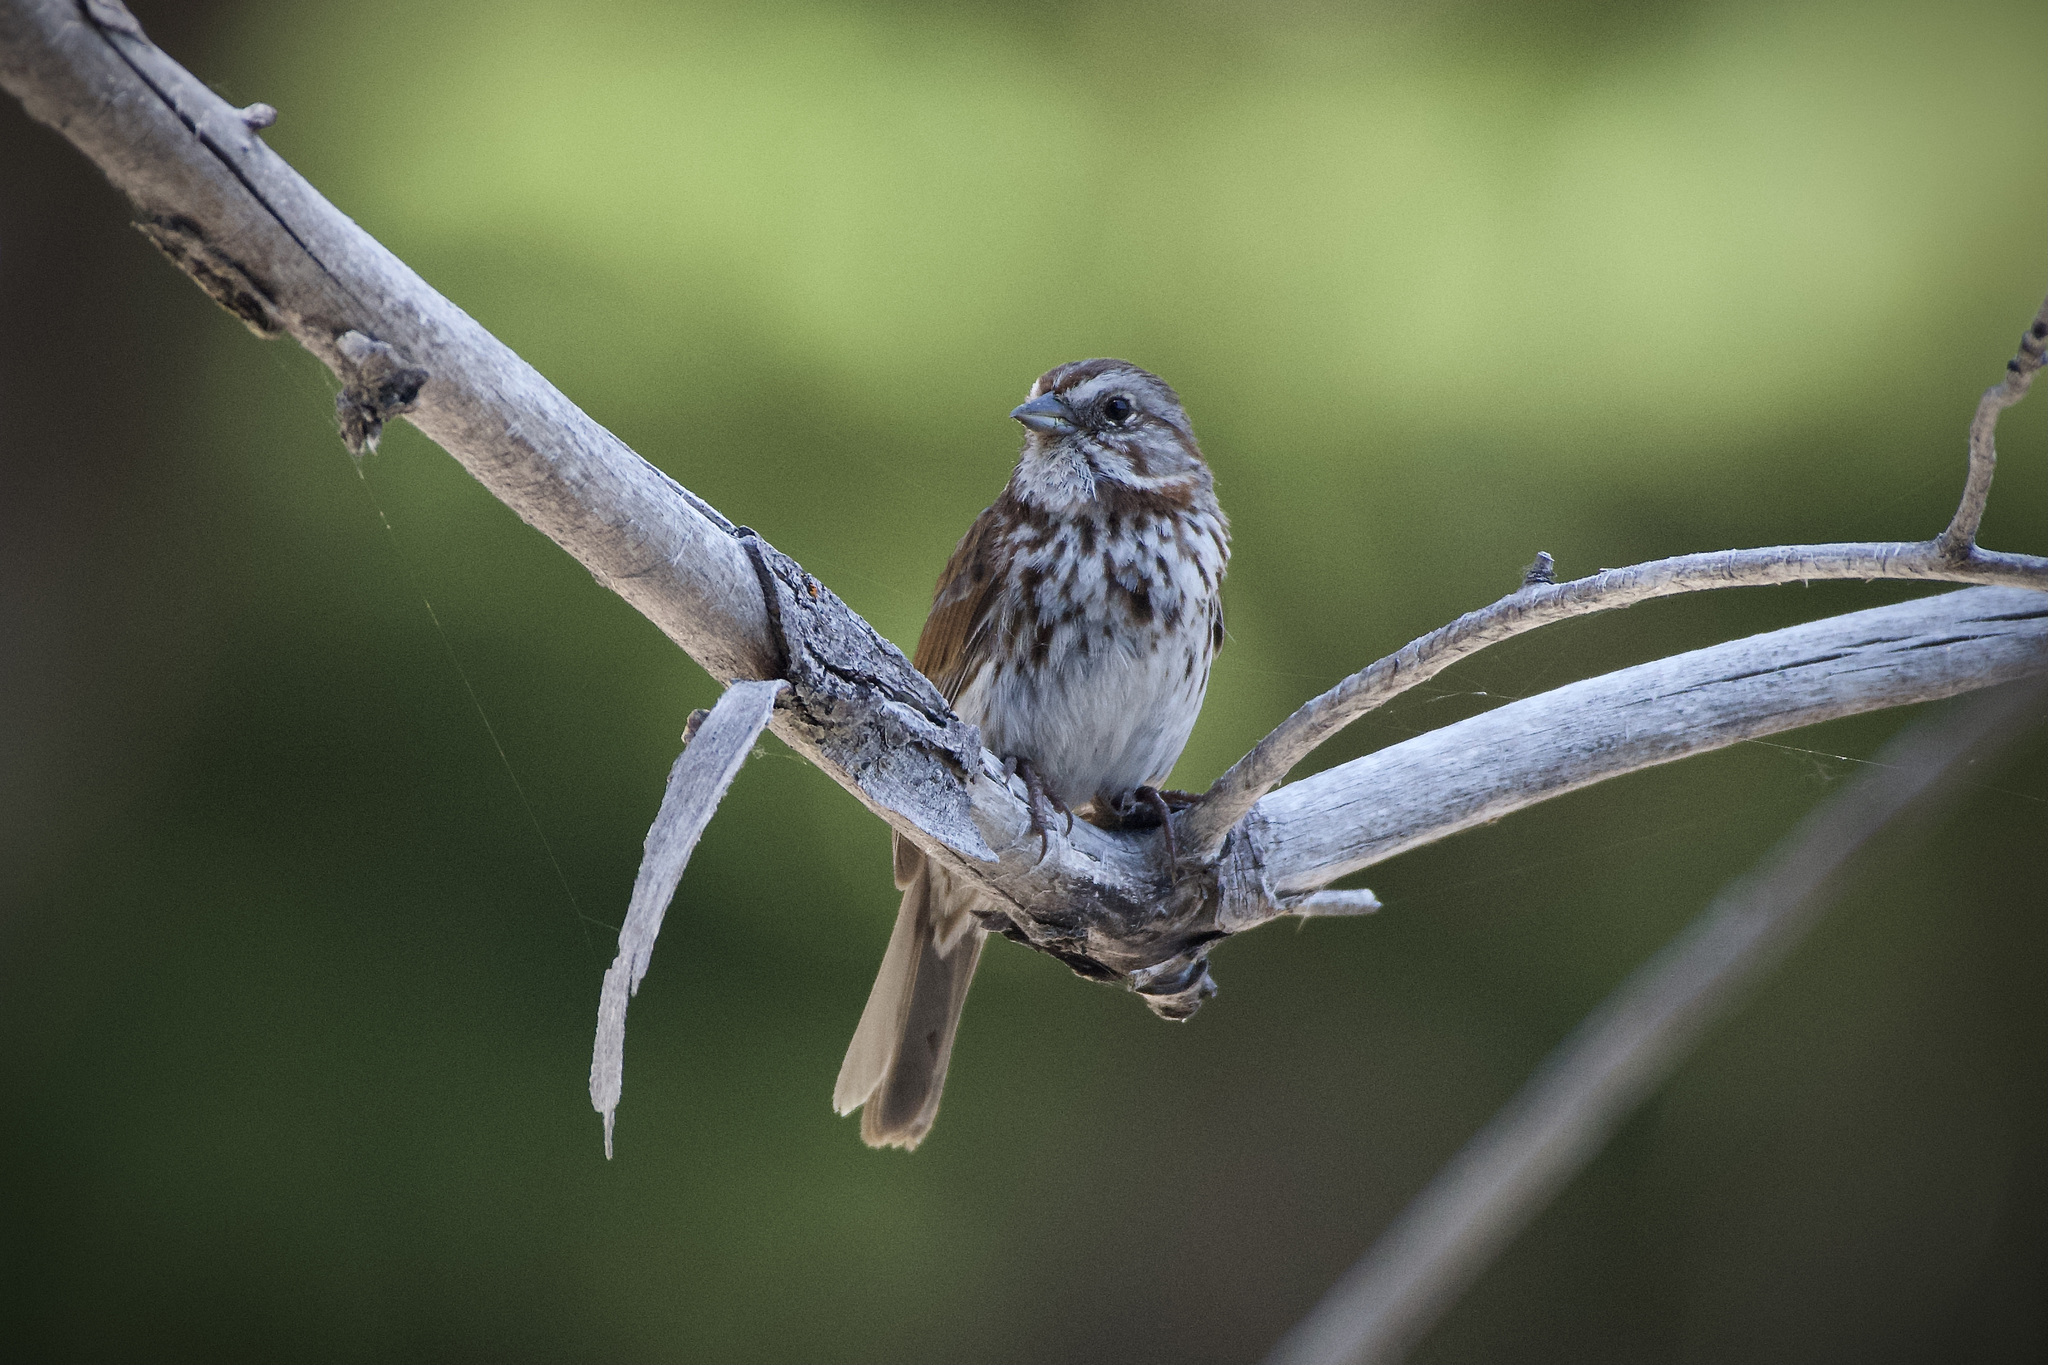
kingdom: Animalia
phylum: Chordata
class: Aves
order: Passeriformes
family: Passerellidae
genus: Melospiza
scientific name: Melospiza melodia
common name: Song sparrow
